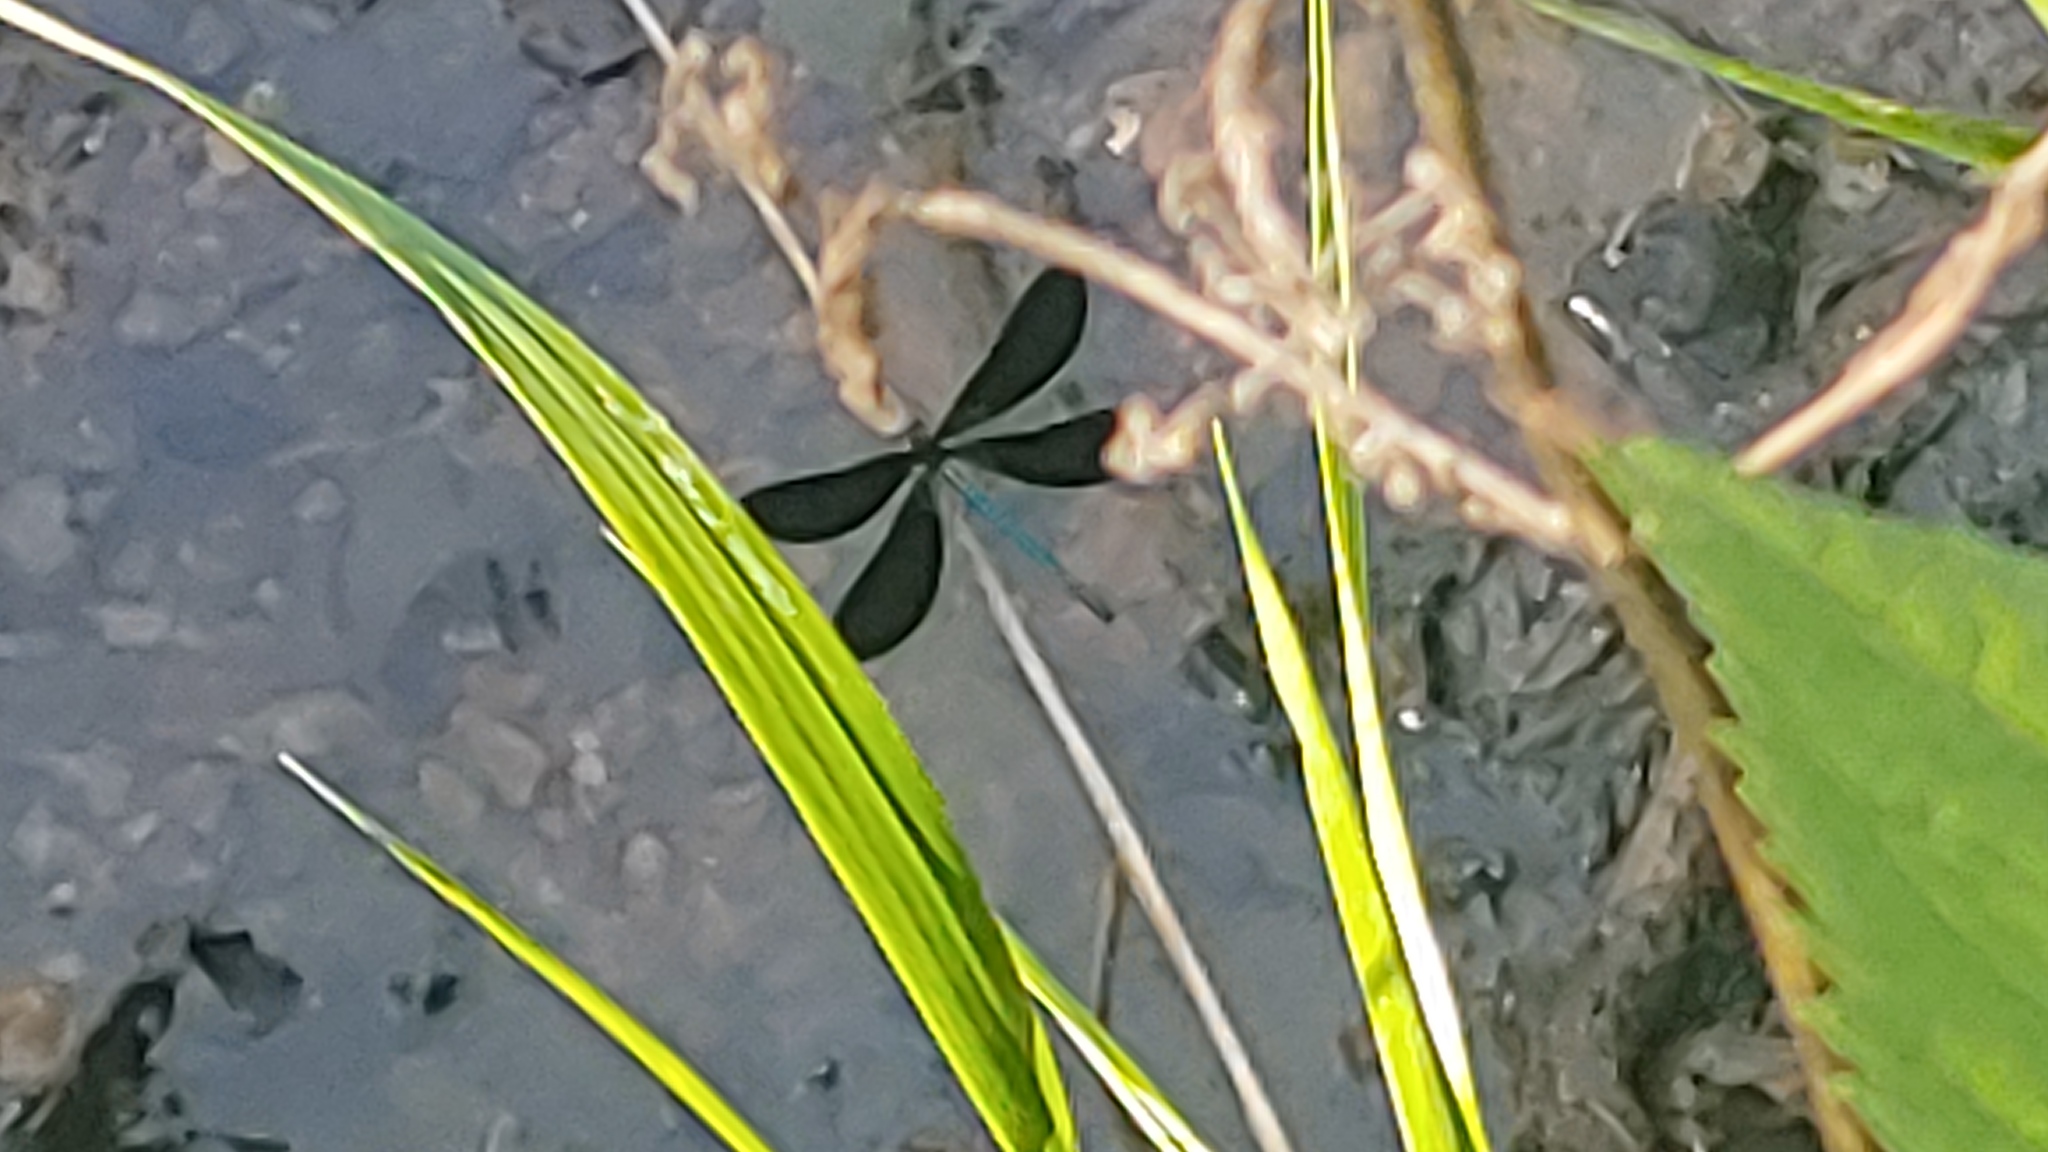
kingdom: Animalia
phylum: Arthropoda
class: Insecta
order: Odonata
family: Calopterygidae
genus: Calopteryx
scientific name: Calopteryx maculata
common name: Ebony jewelwing
